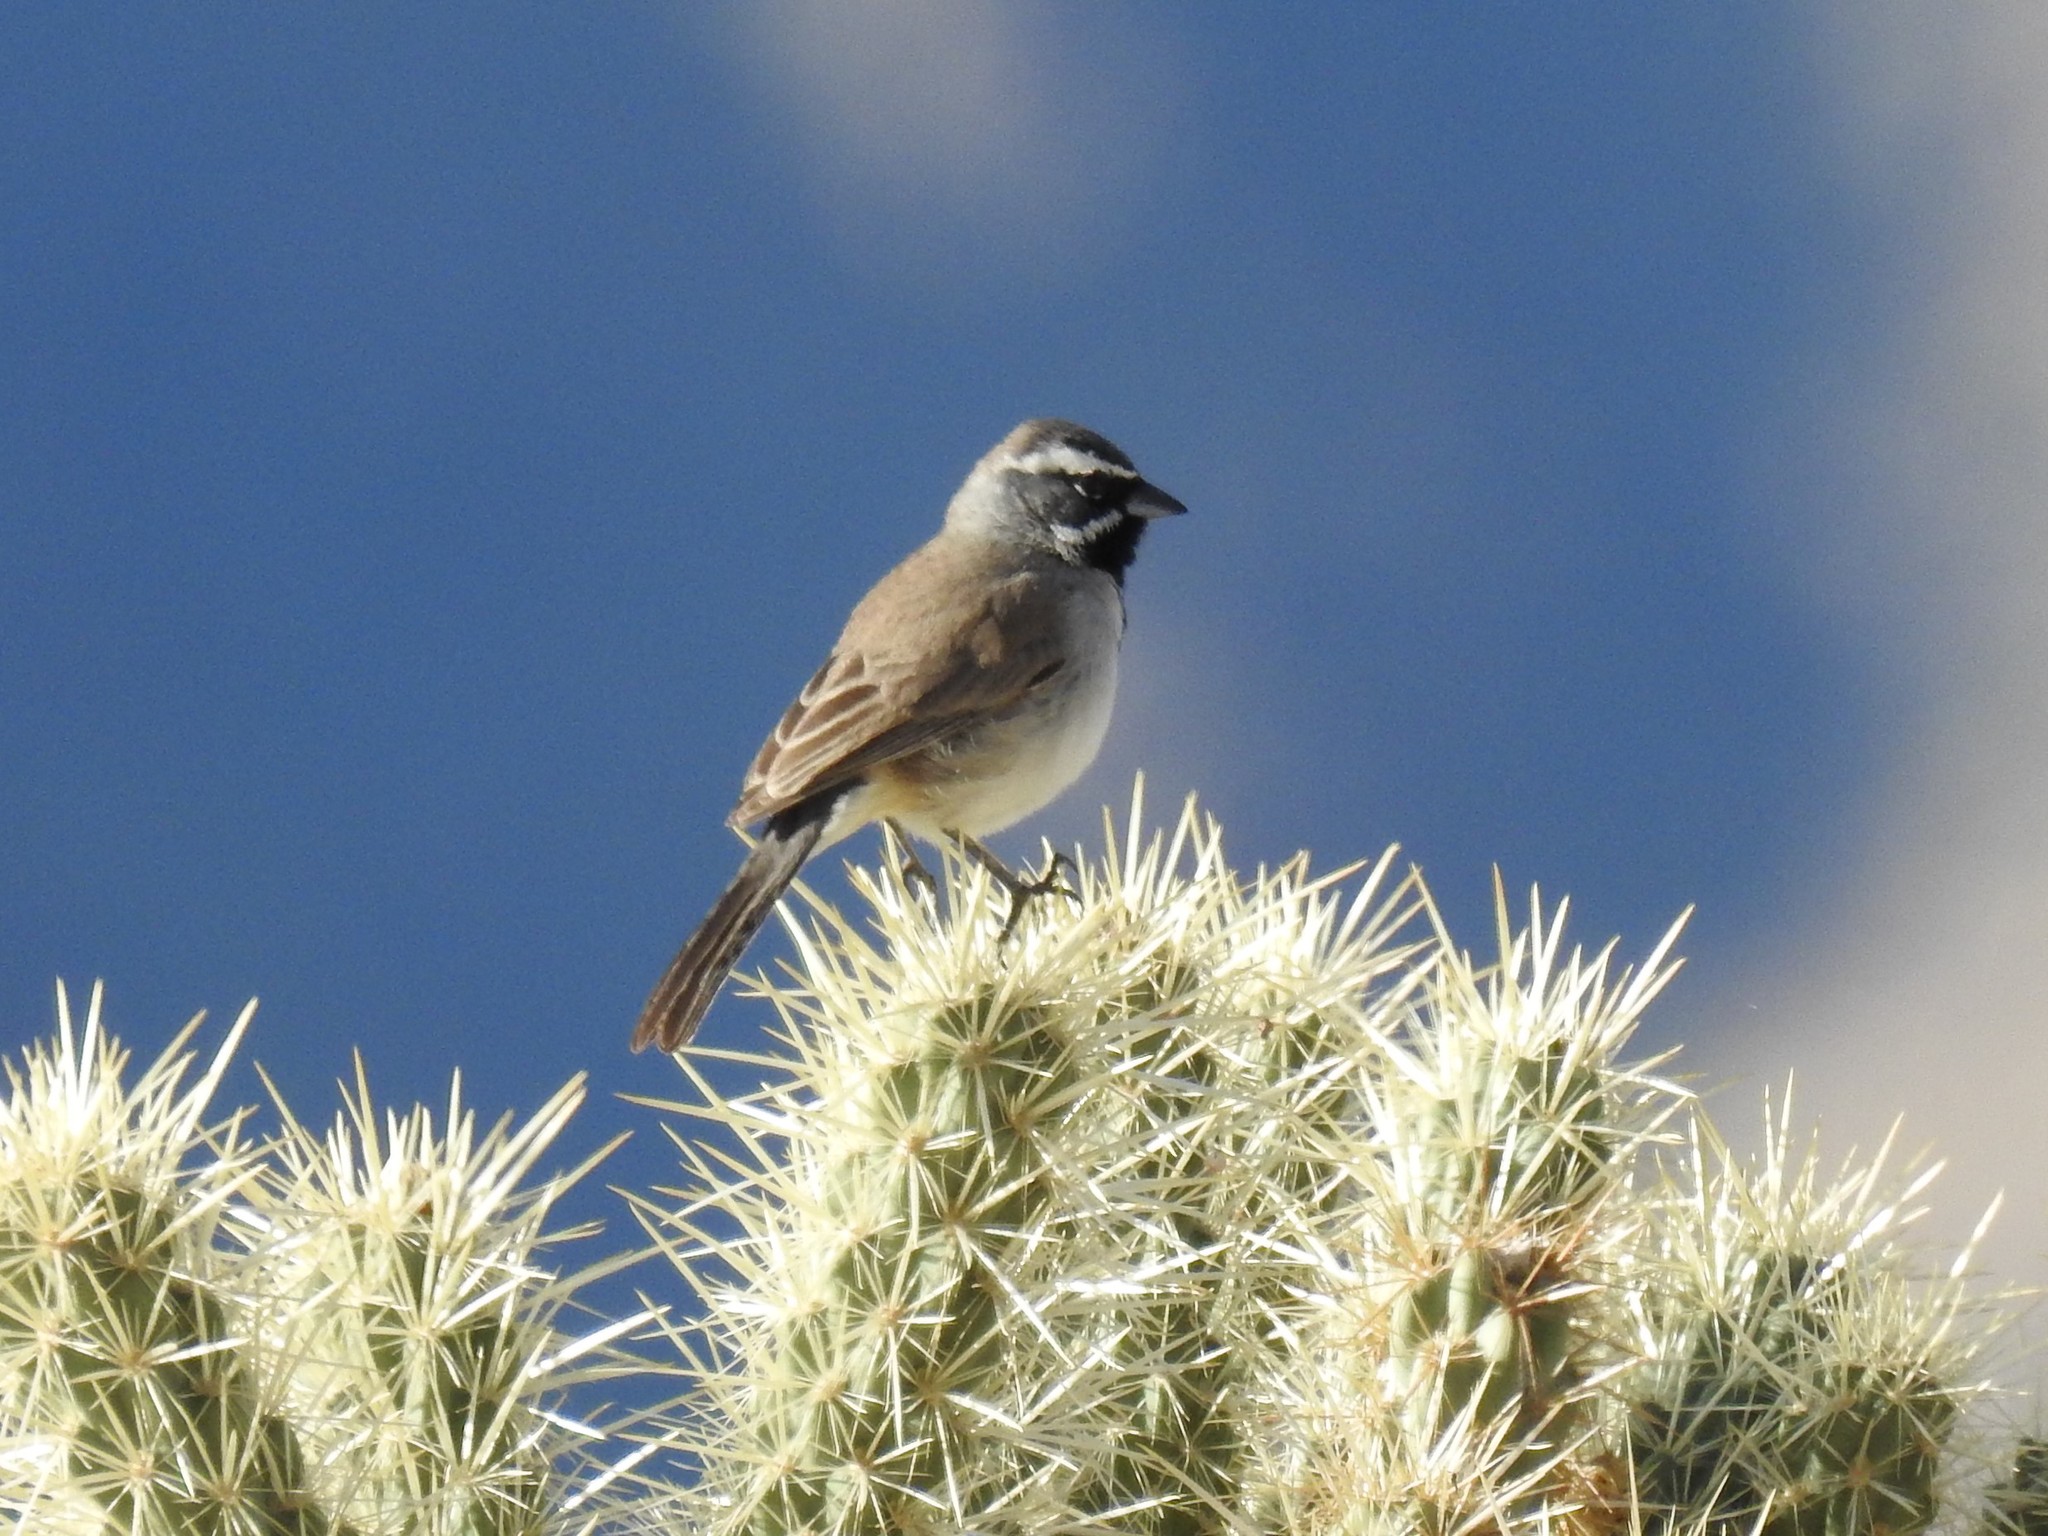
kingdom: Animalia
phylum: Chordata
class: Aves
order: Passeriformes
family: Passerellidae
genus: Amphispiza
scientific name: Amphispiza bilineata
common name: Black-throated sparrow
